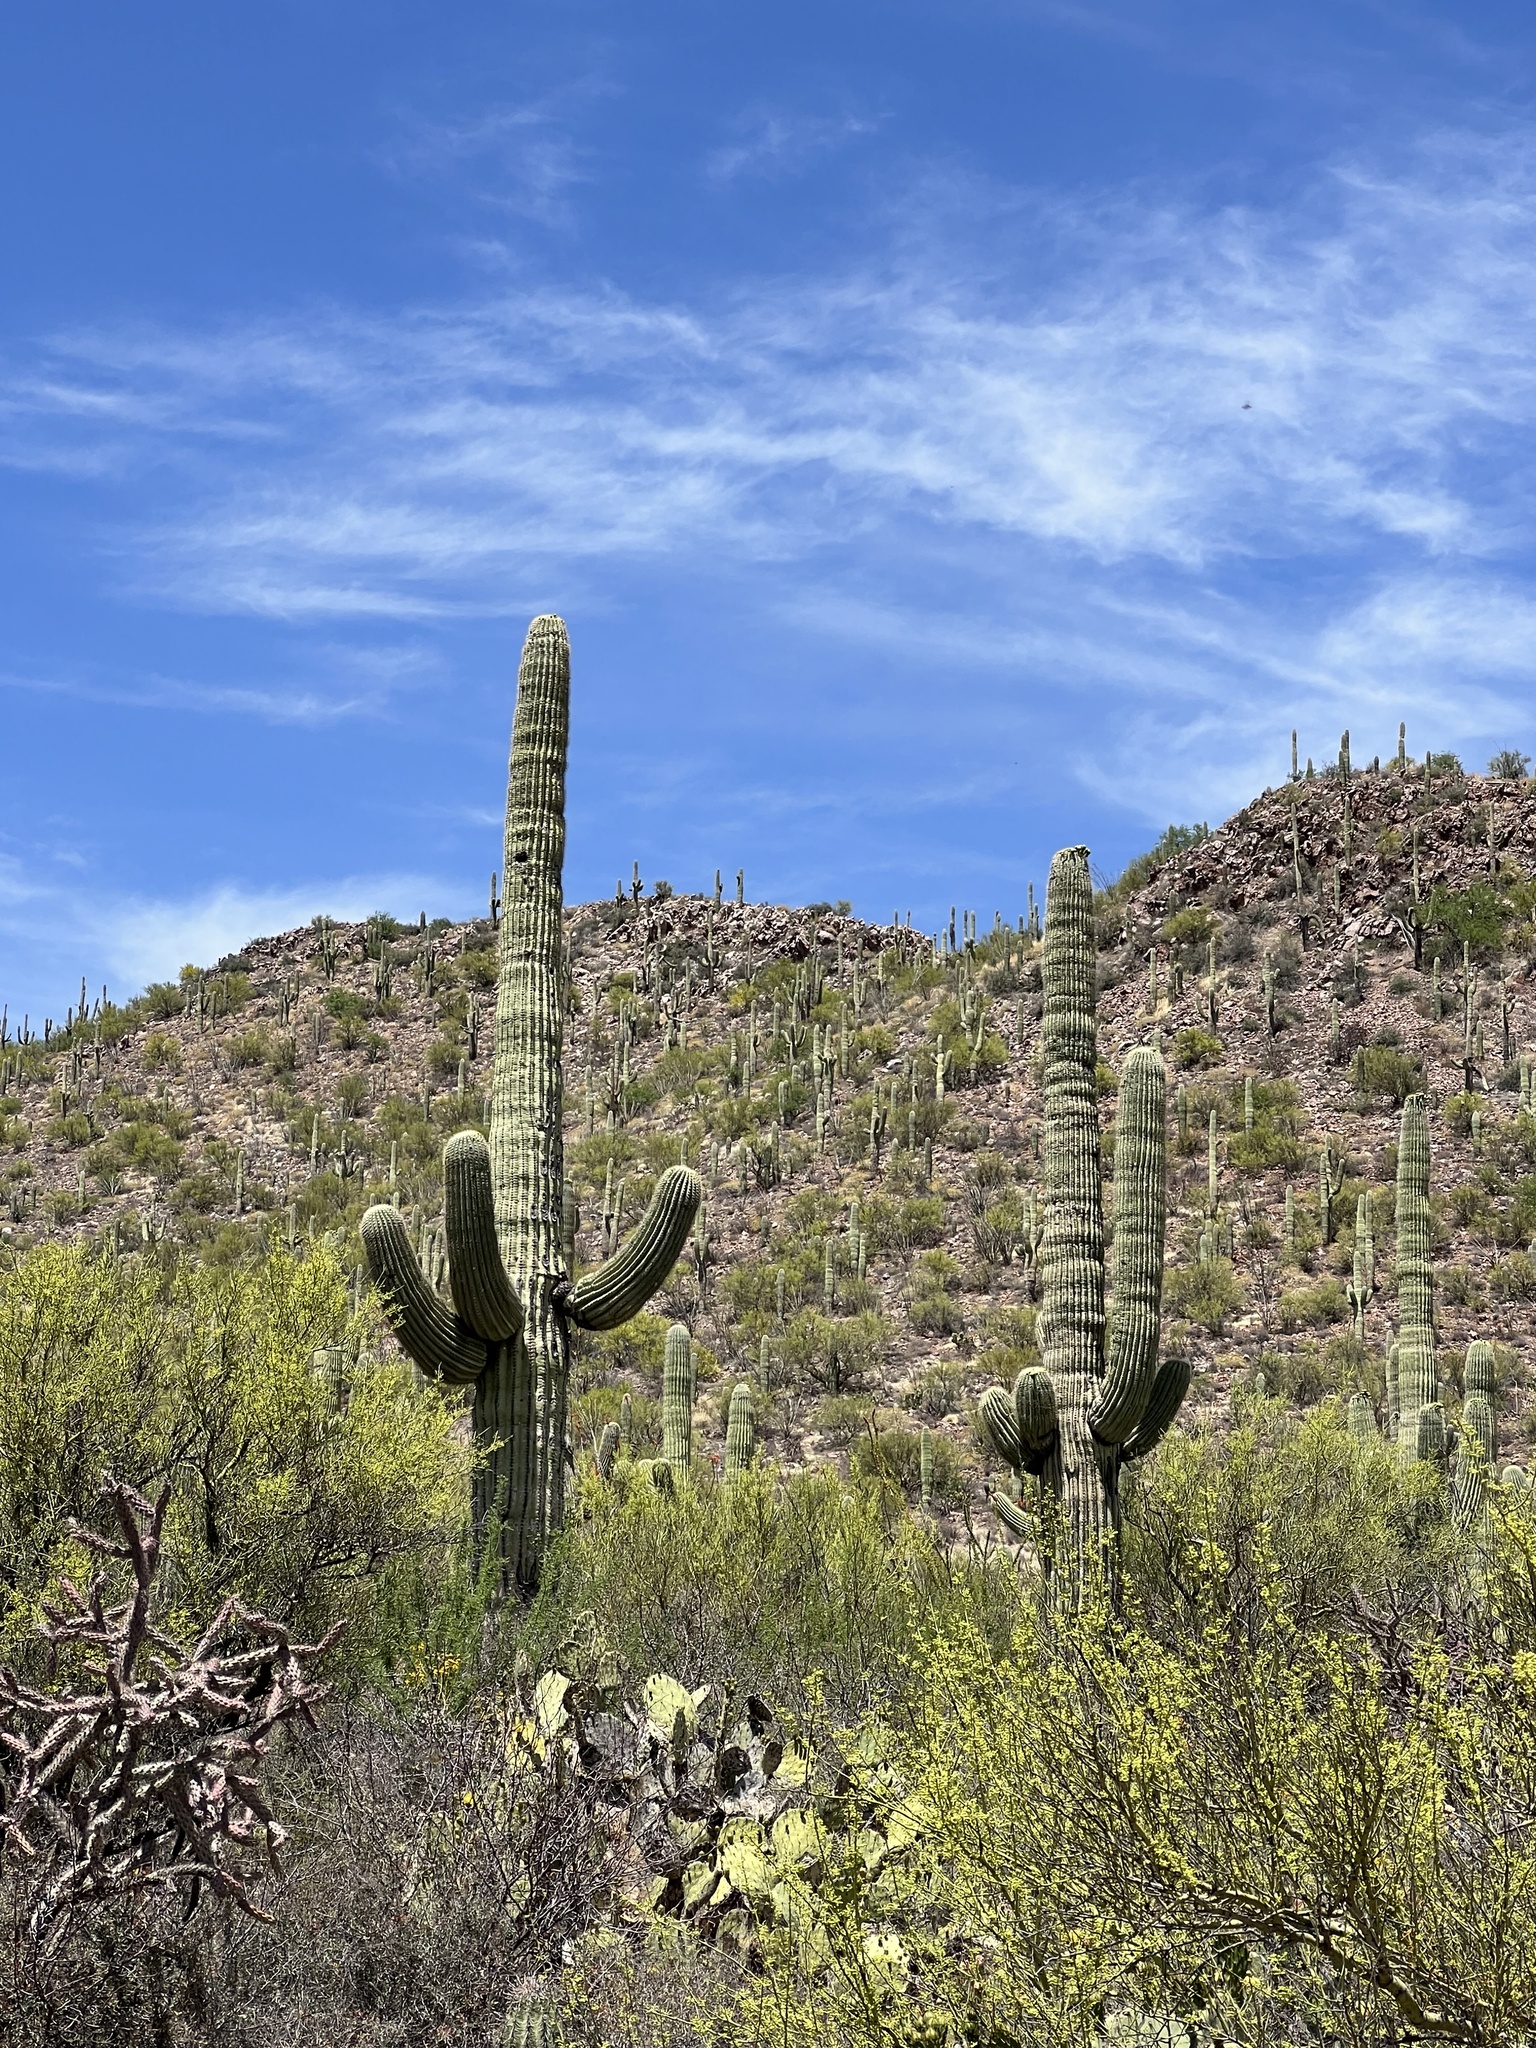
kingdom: Plantae
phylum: Tracheophyta
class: Magnoliopsida
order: Caryophyllales
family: Cactaceae
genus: Carnegiea
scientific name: Carnegiea gigantea
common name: Saguaro
